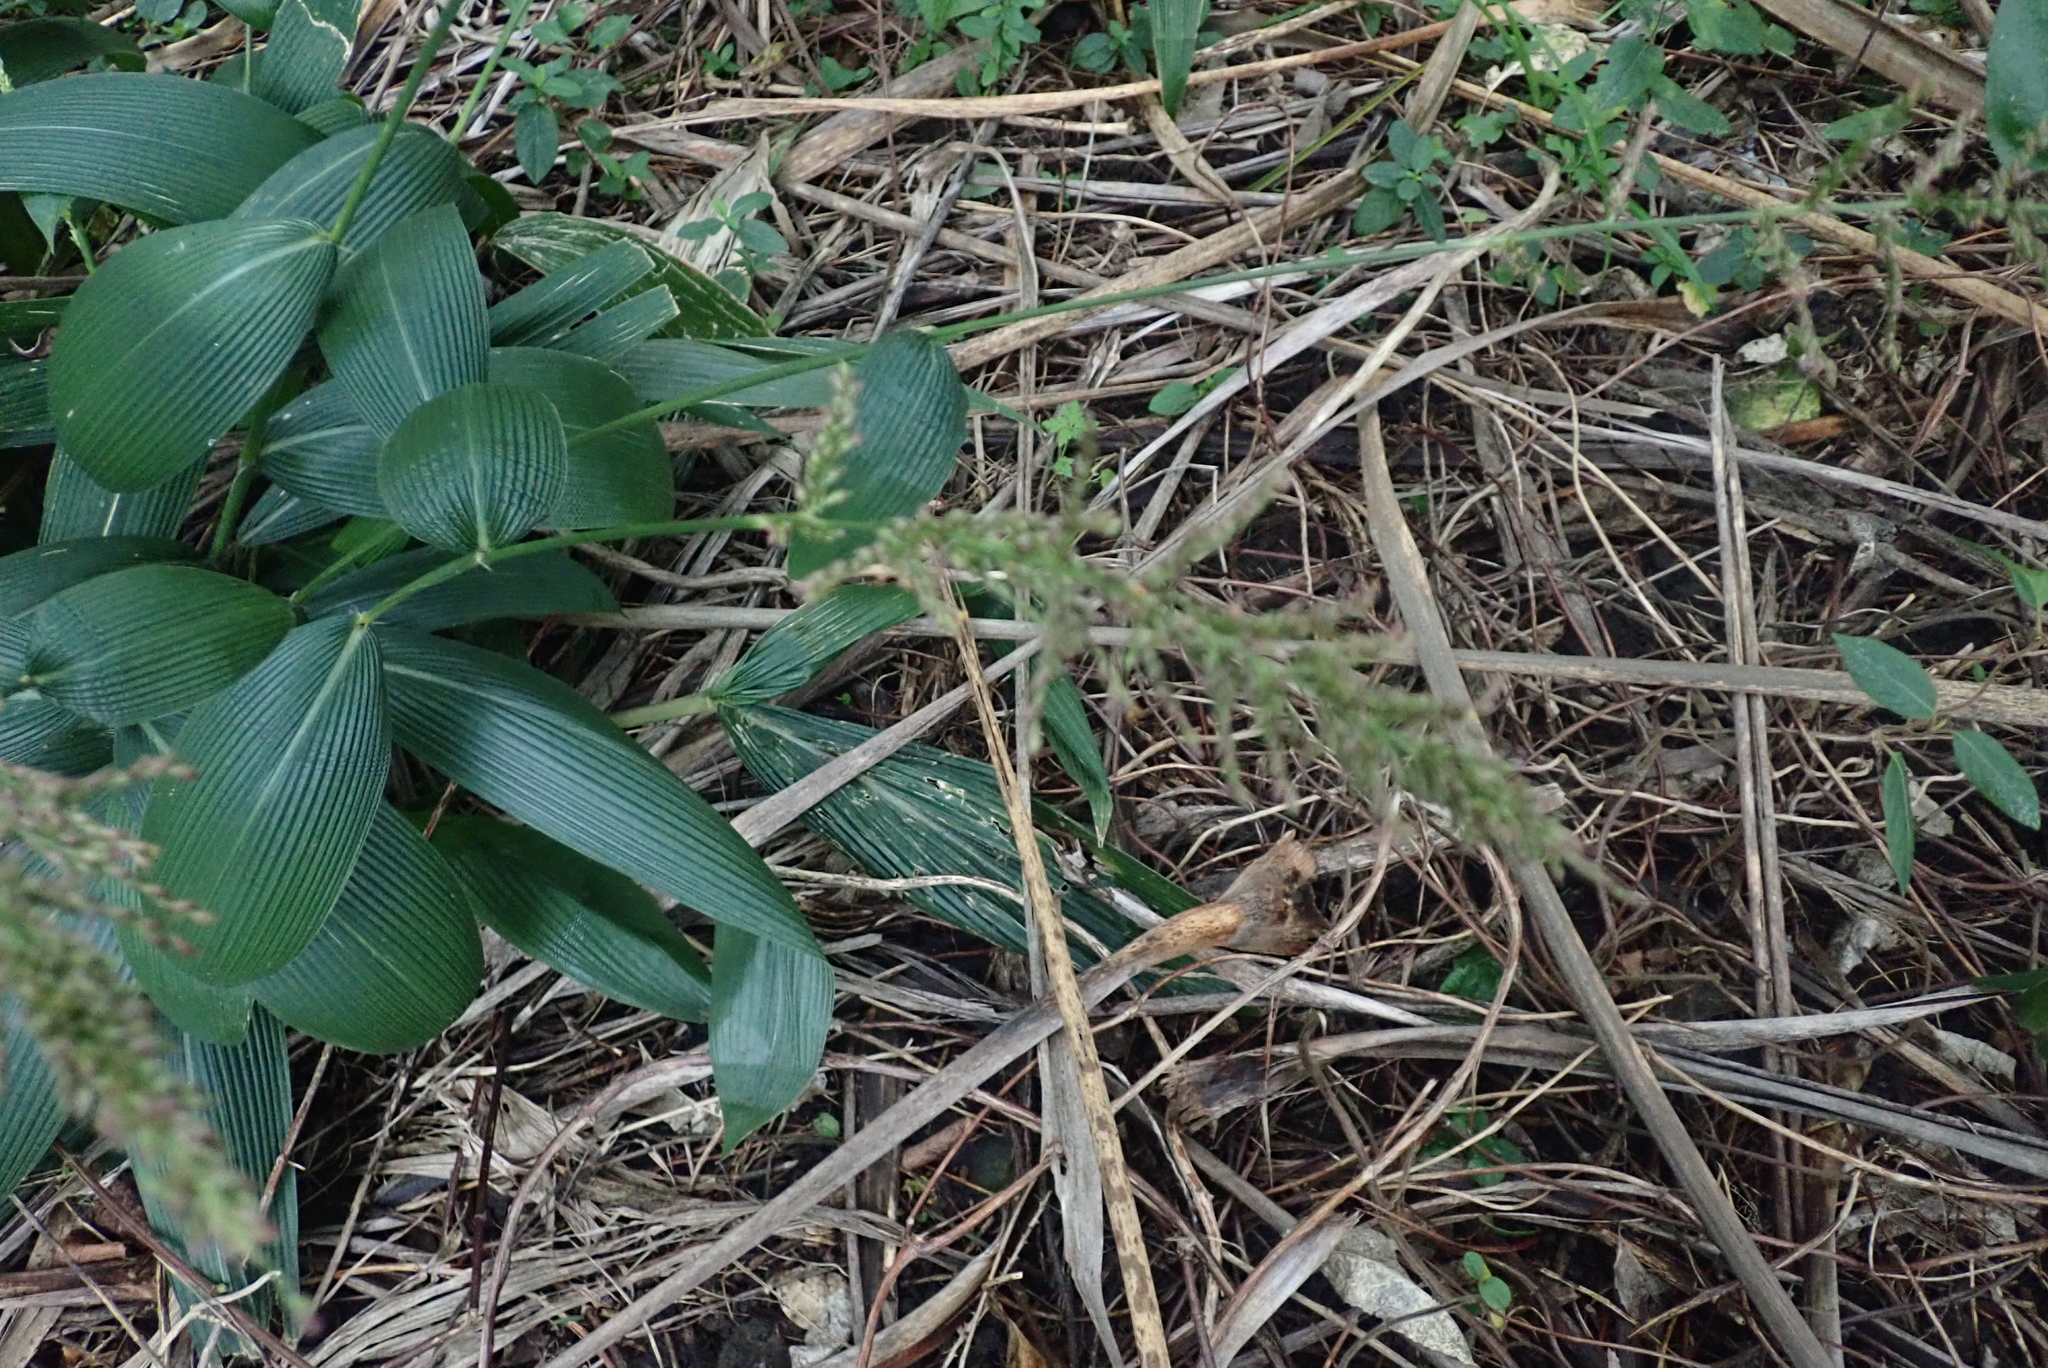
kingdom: Plantae
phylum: Tracheophyta
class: Liliopsida
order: Poales
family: Poaceae
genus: Setaria
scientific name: Setaria palmifolia
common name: Broadleaved bristlegrass
